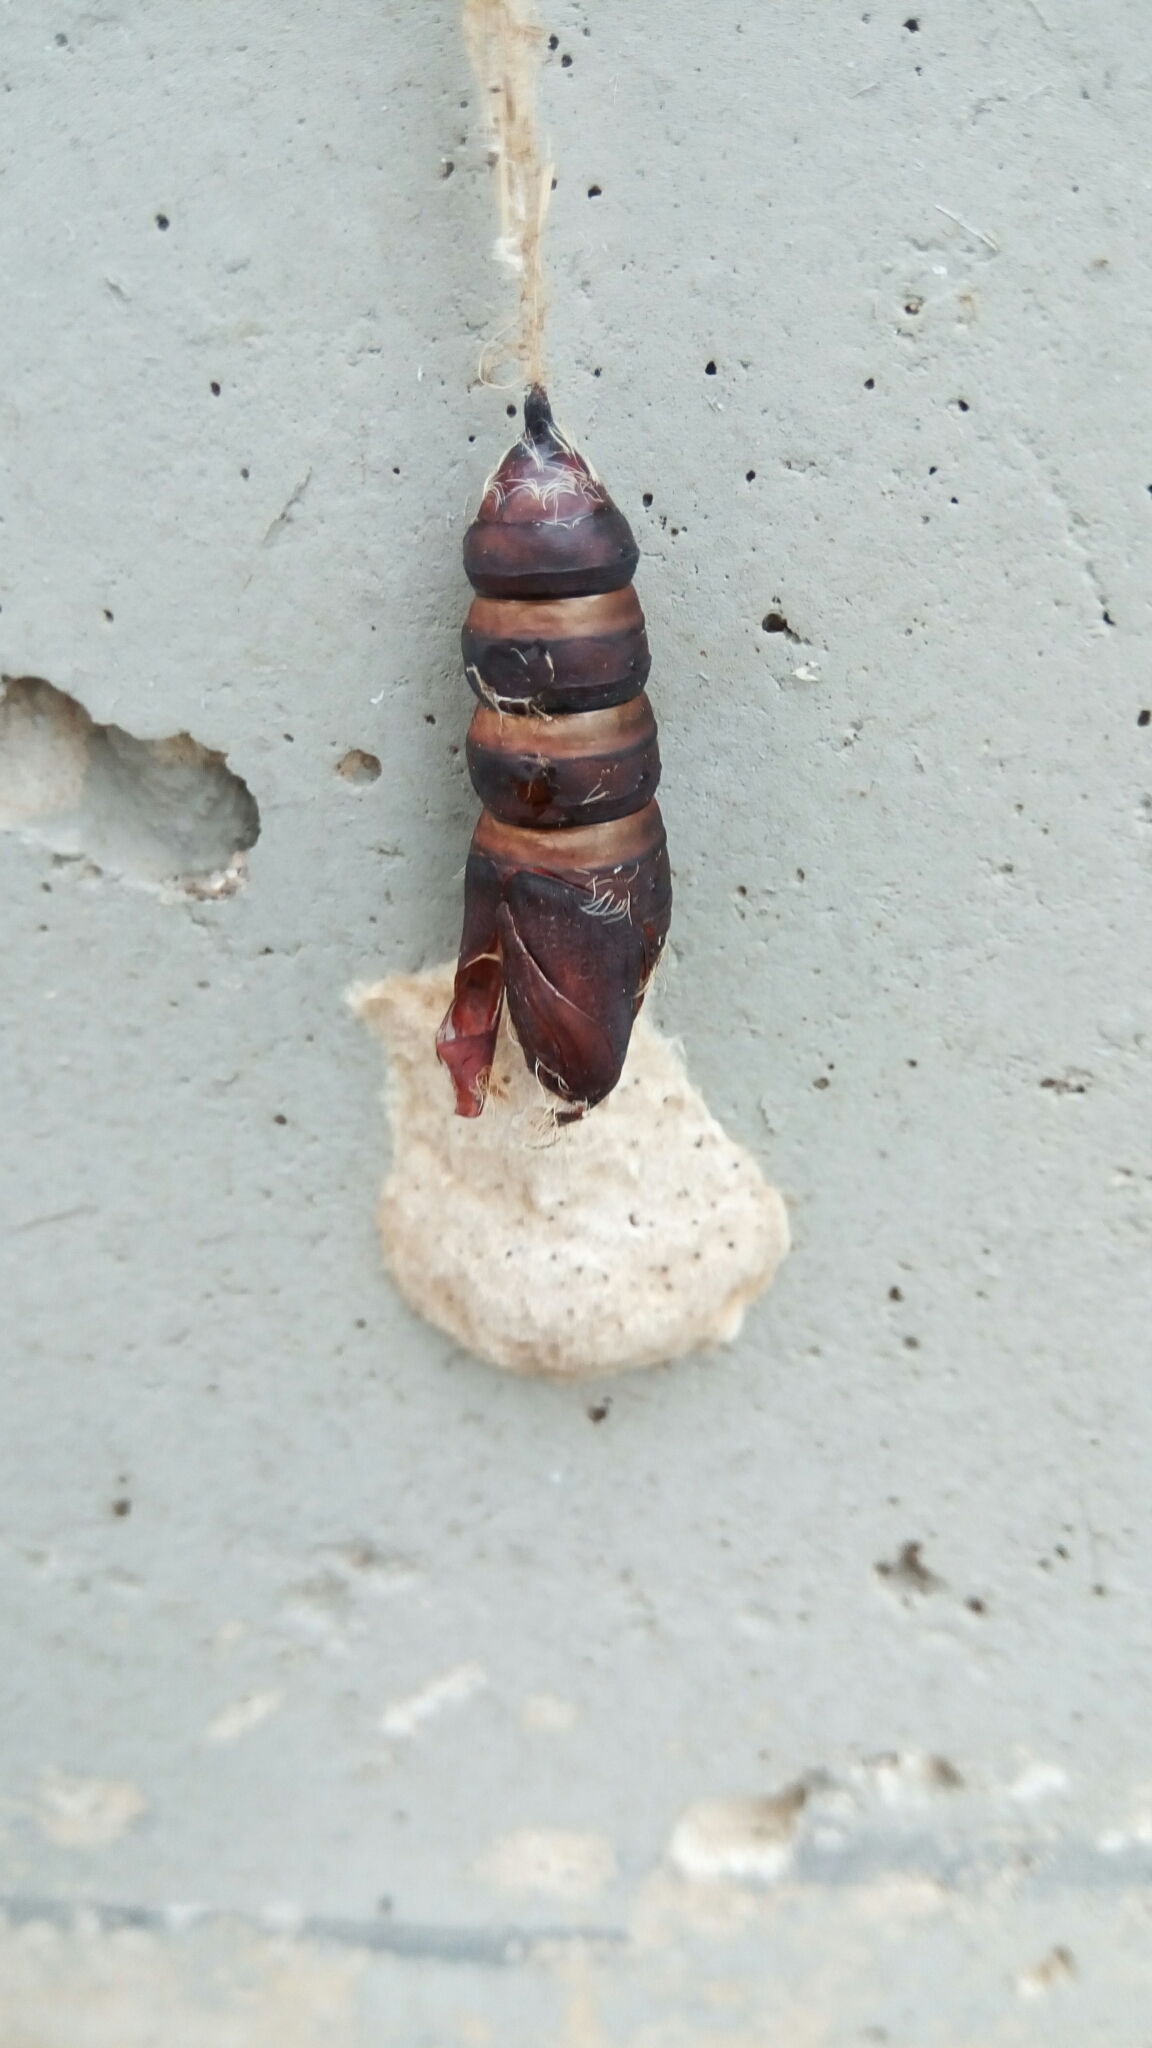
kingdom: Animalia
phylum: Arthropoda
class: Insecta
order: Lepidoptera
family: Erebidae
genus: Lymantria
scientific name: Lymantria dispar
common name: Gypsy moth
